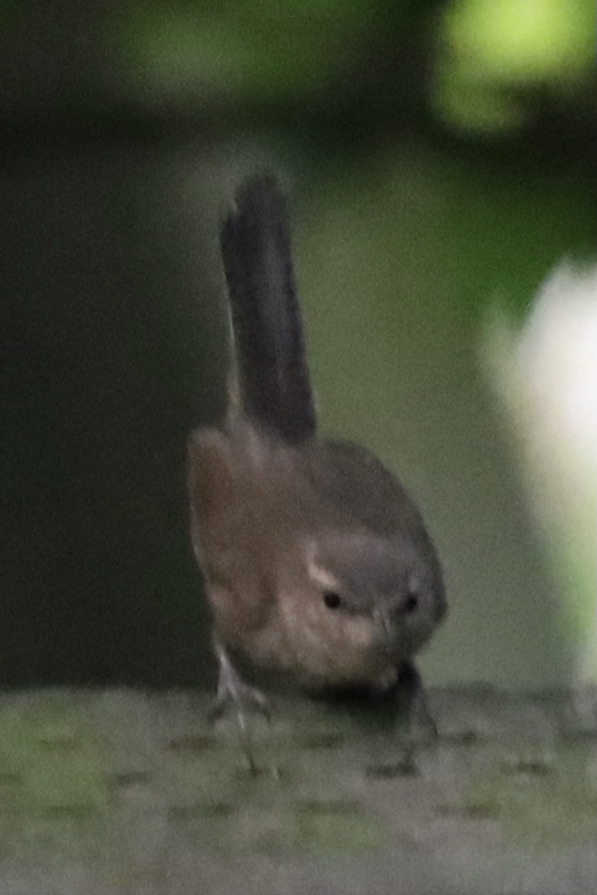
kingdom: Animalia
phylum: Chordata
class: Aves
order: Passeriformes
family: Troglodytidae
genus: Thryomanes
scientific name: Thryomanes bewickii
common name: Bewick's wren
